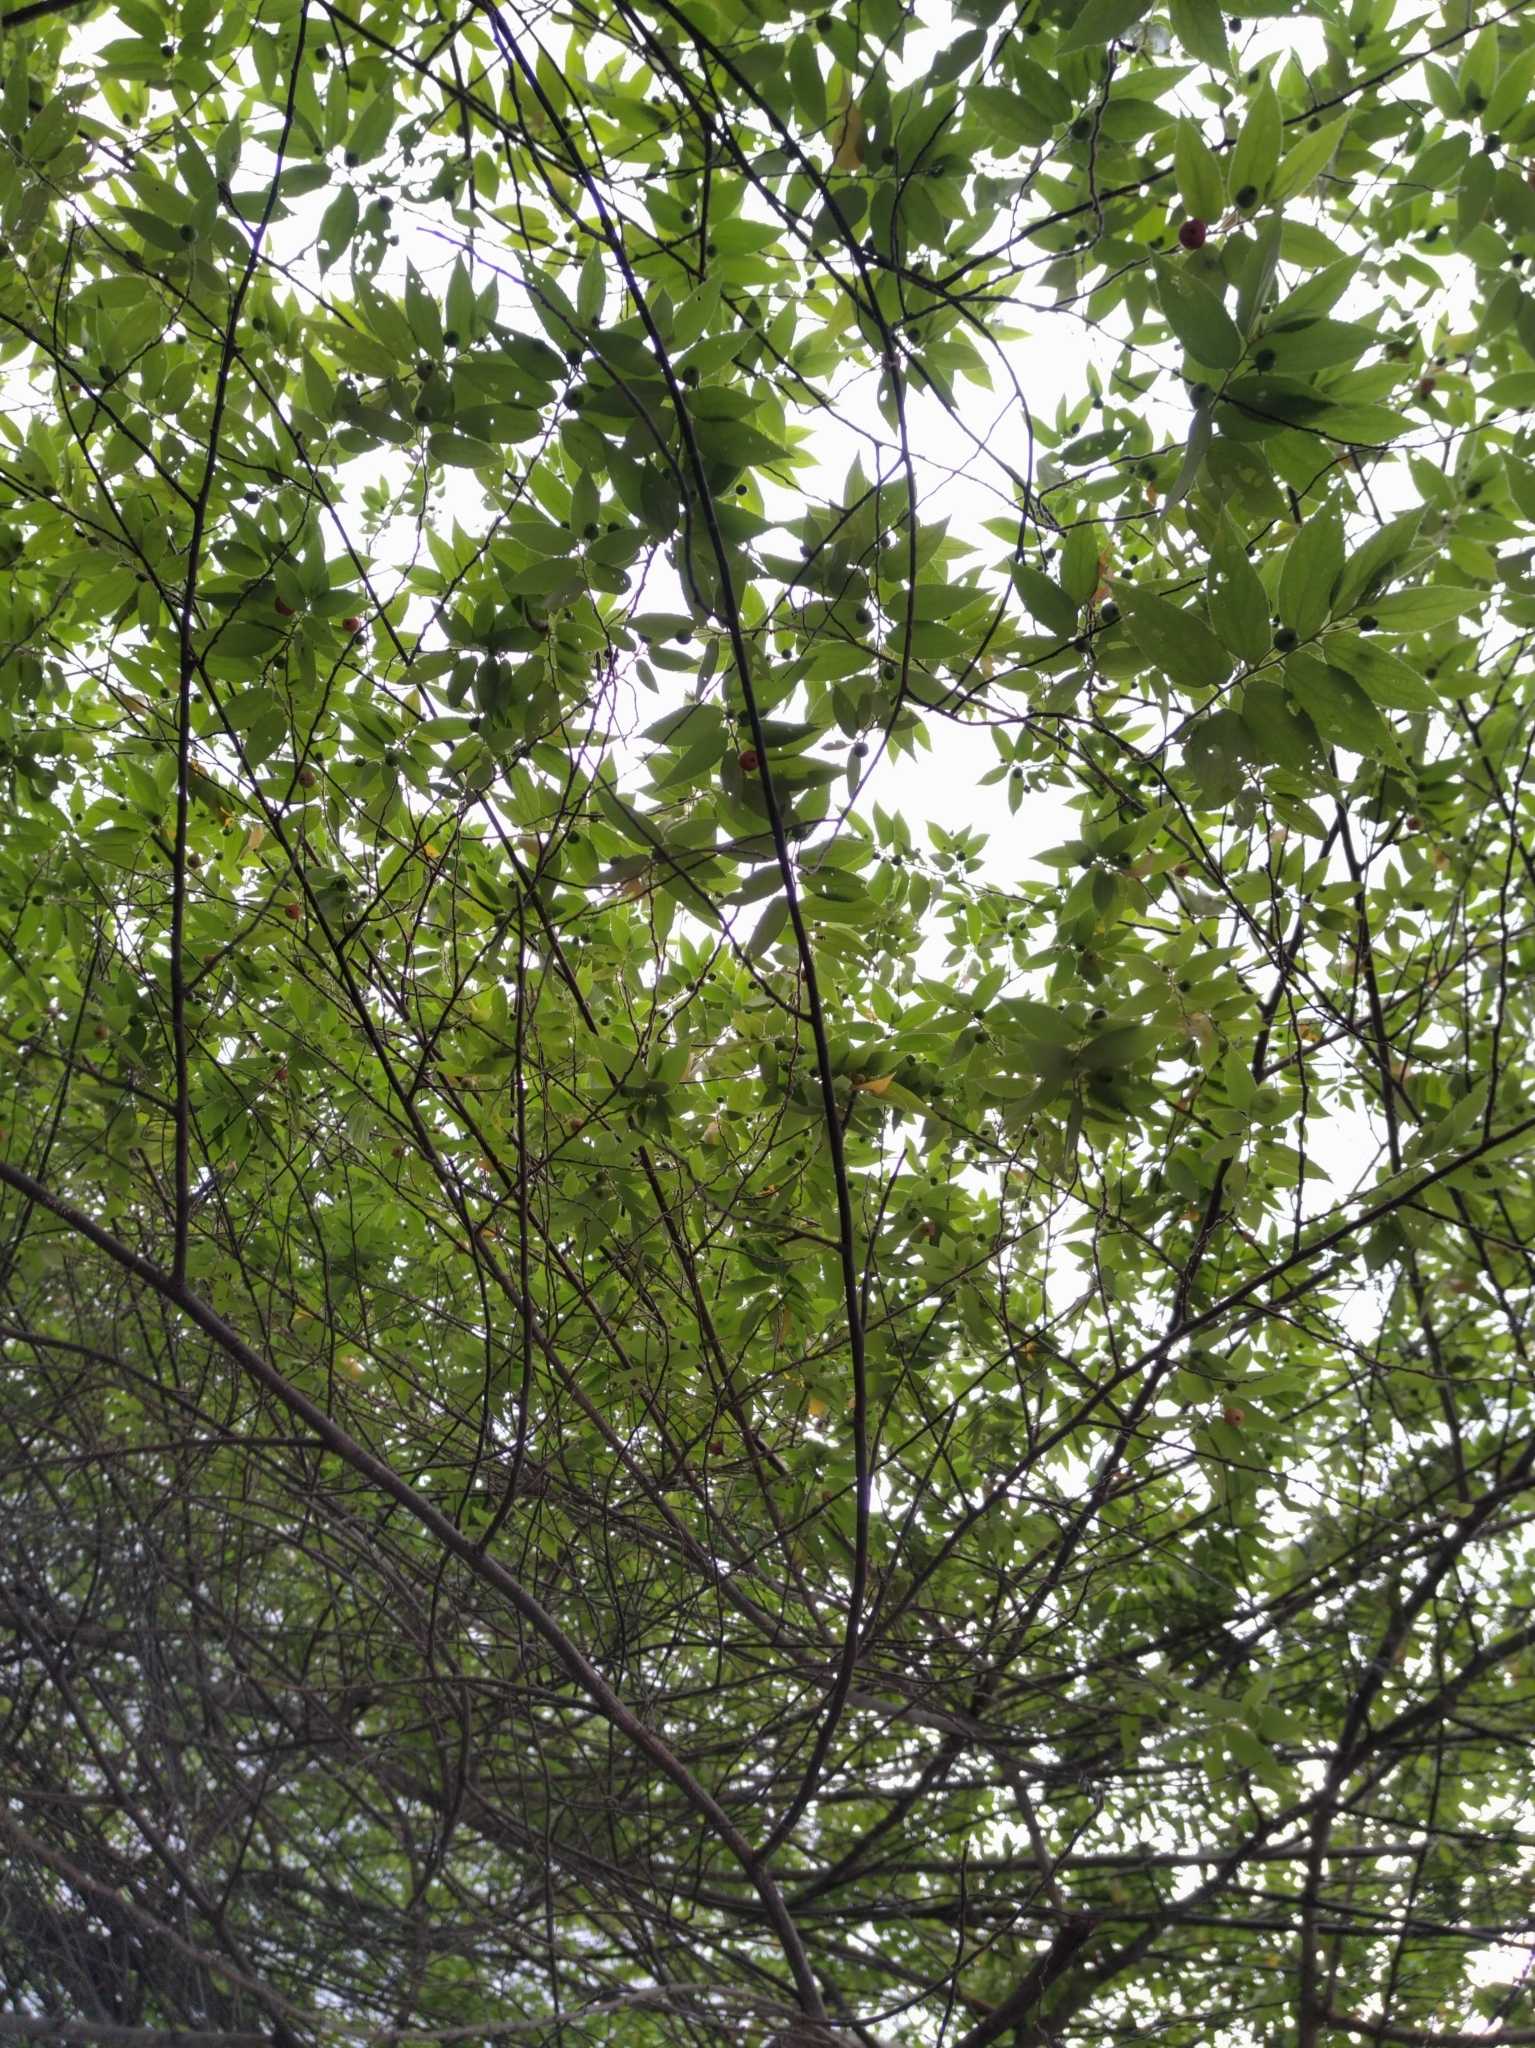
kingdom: Plantae
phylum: Tracheophyta
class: Magnoliopsida
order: Malvales
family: Muntingiaceae
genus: Muntingia
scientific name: Muntingia calabura
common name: Strawberrytree
